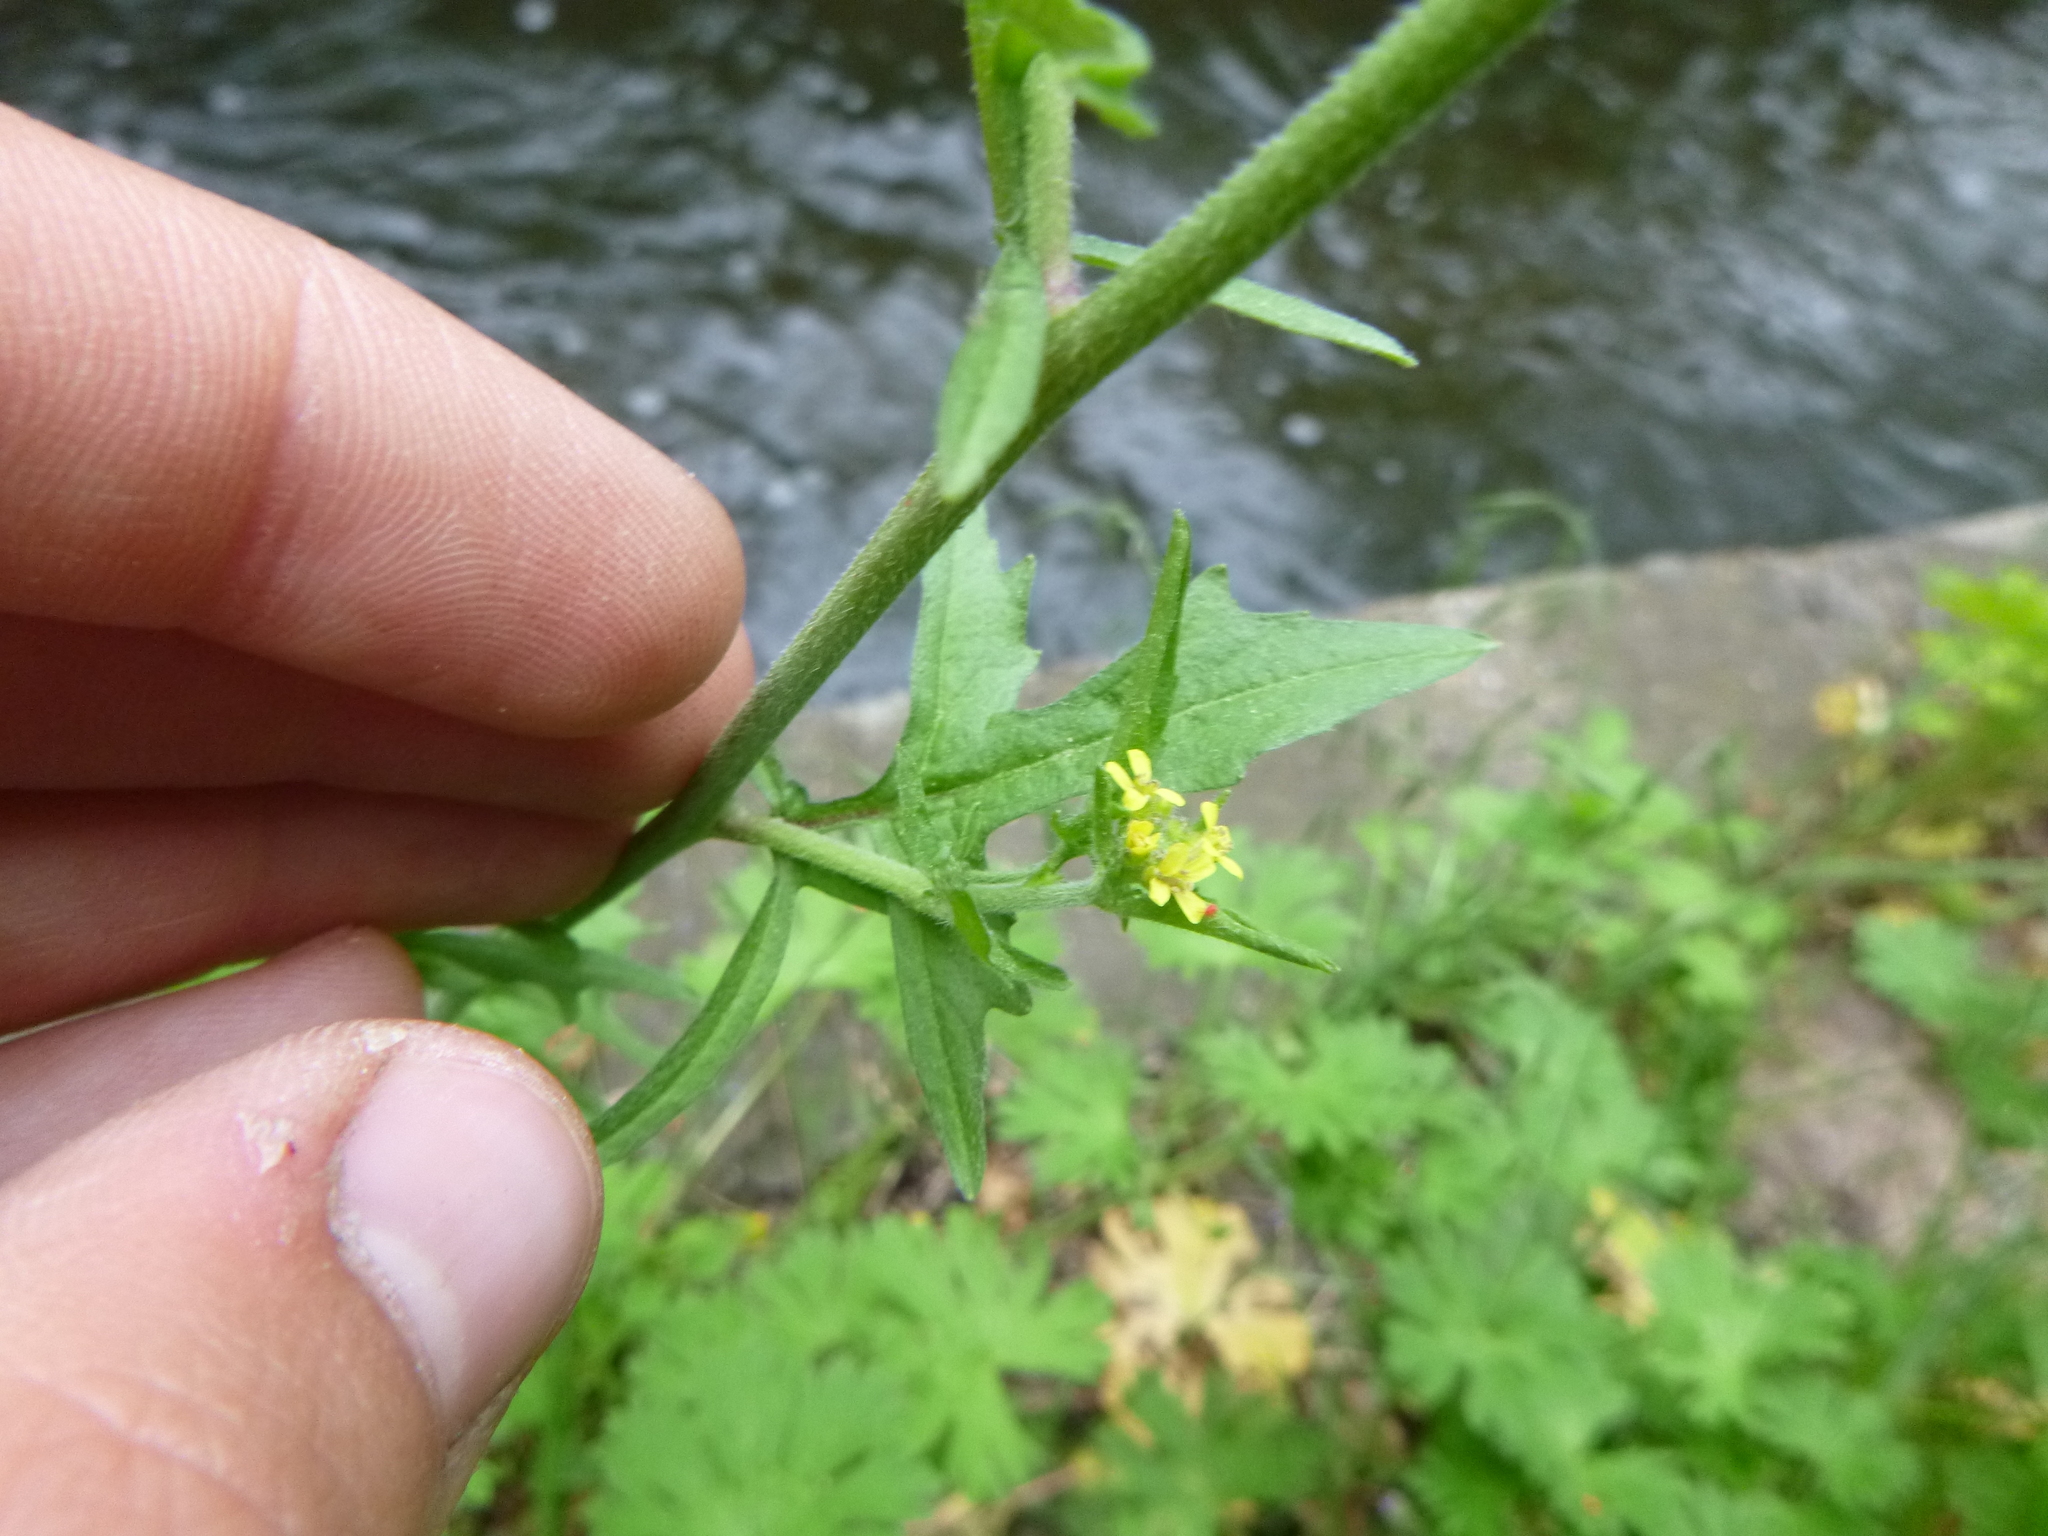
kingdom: Plantae
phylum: Tracheophyta
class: Magnoliopsida
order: Brassicales
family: Brassicaceae
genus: Sisymbrium
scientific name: Sisymbrium officinale
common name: Hedge mustard
